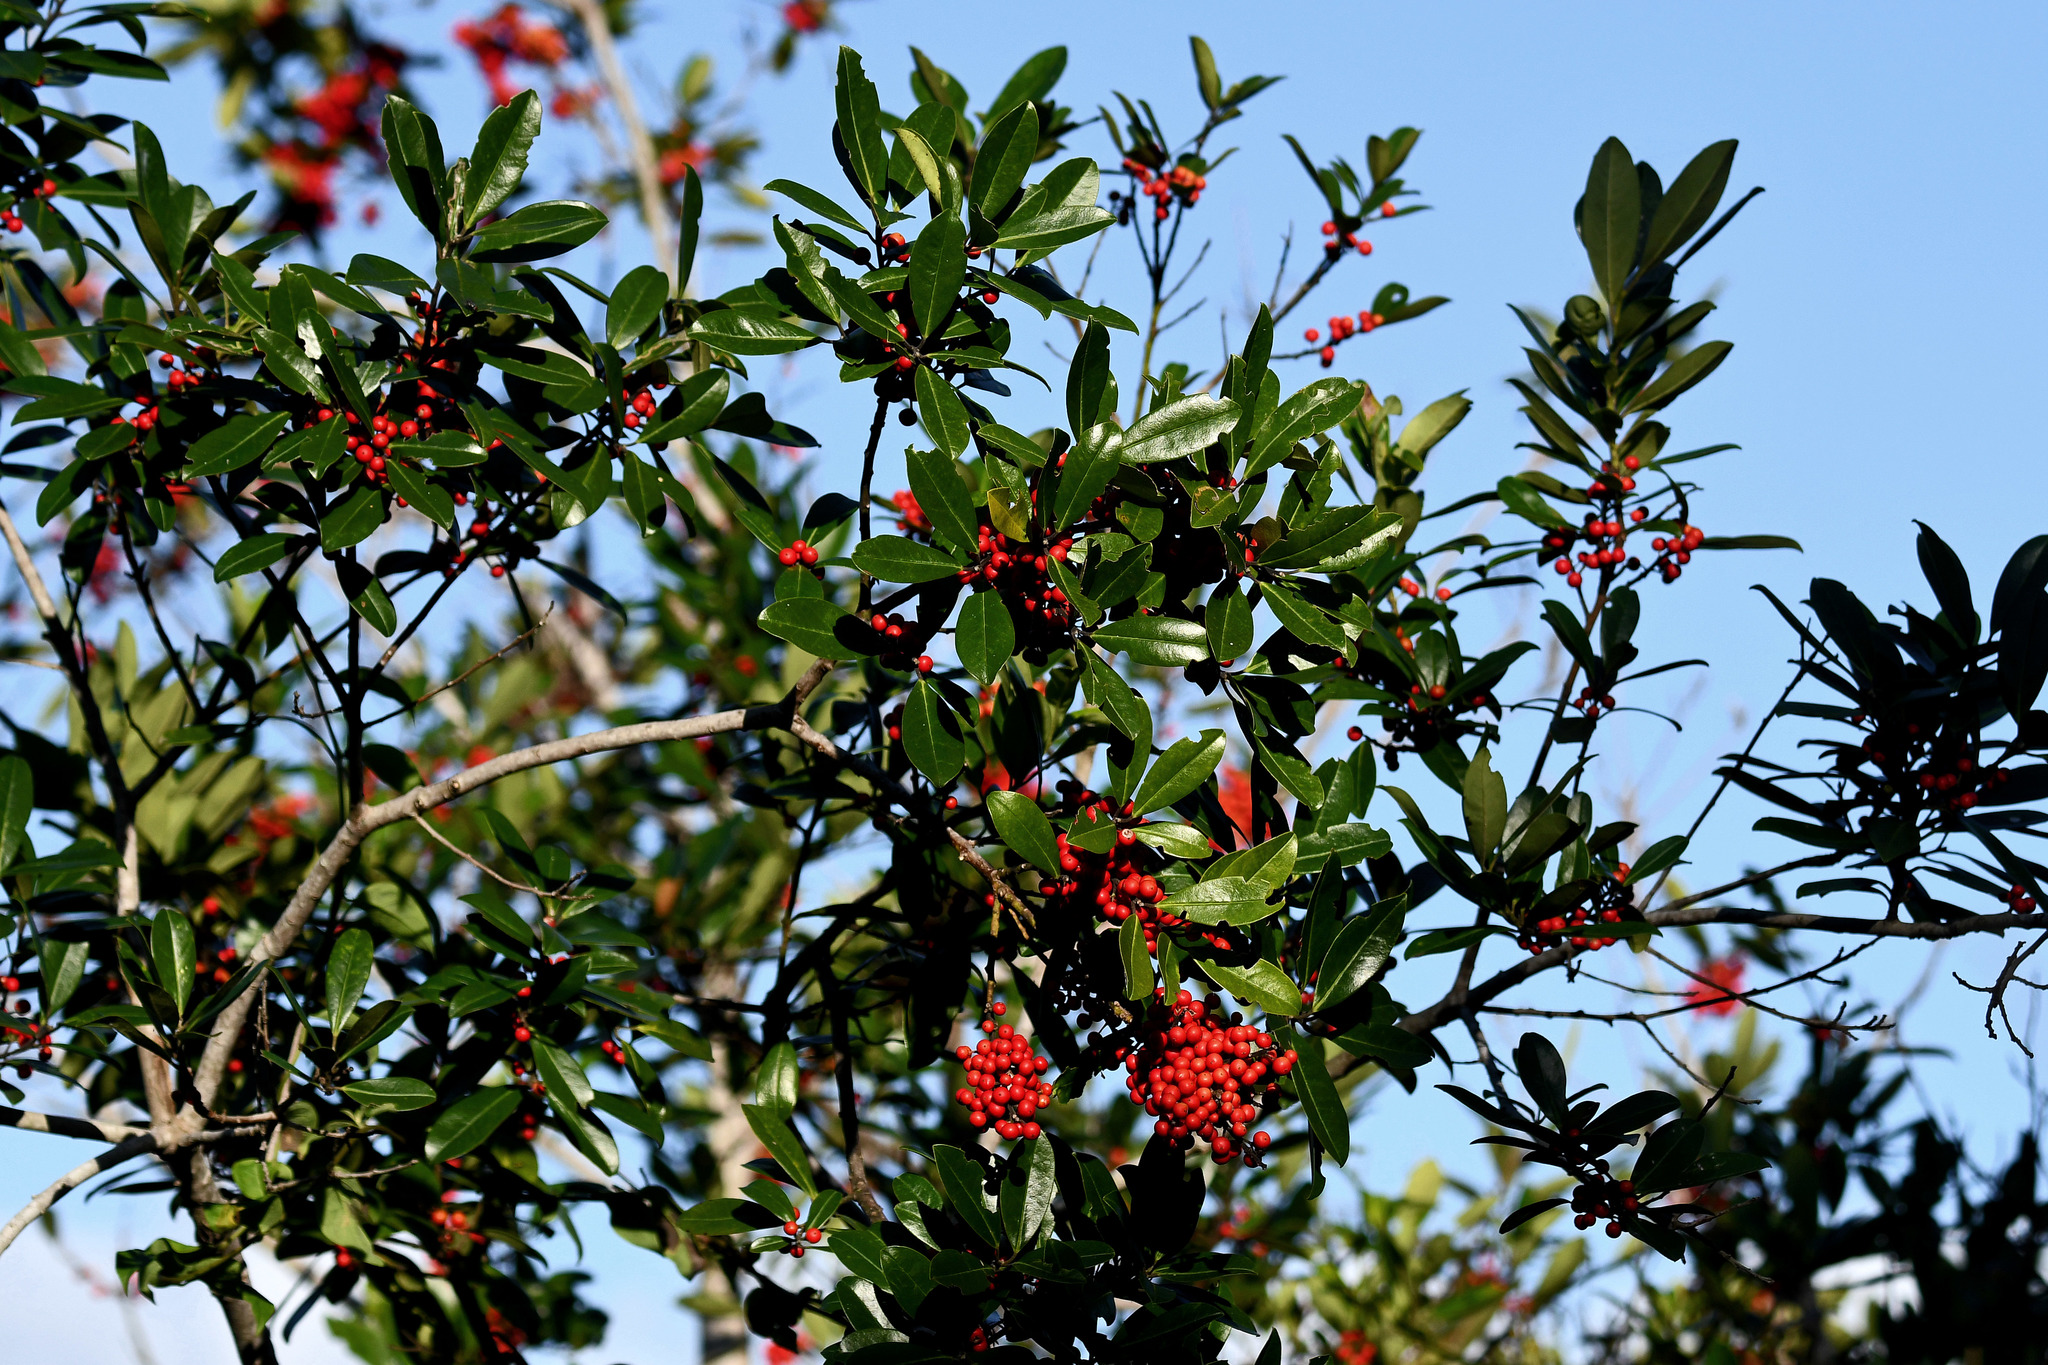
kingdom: Plantae
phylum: Tracheophyta
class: Magnoliopsida
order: Aquifoliales
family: Aquifoliaceae
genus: Ilex
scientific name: Ilex cassine
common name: Dahoon
